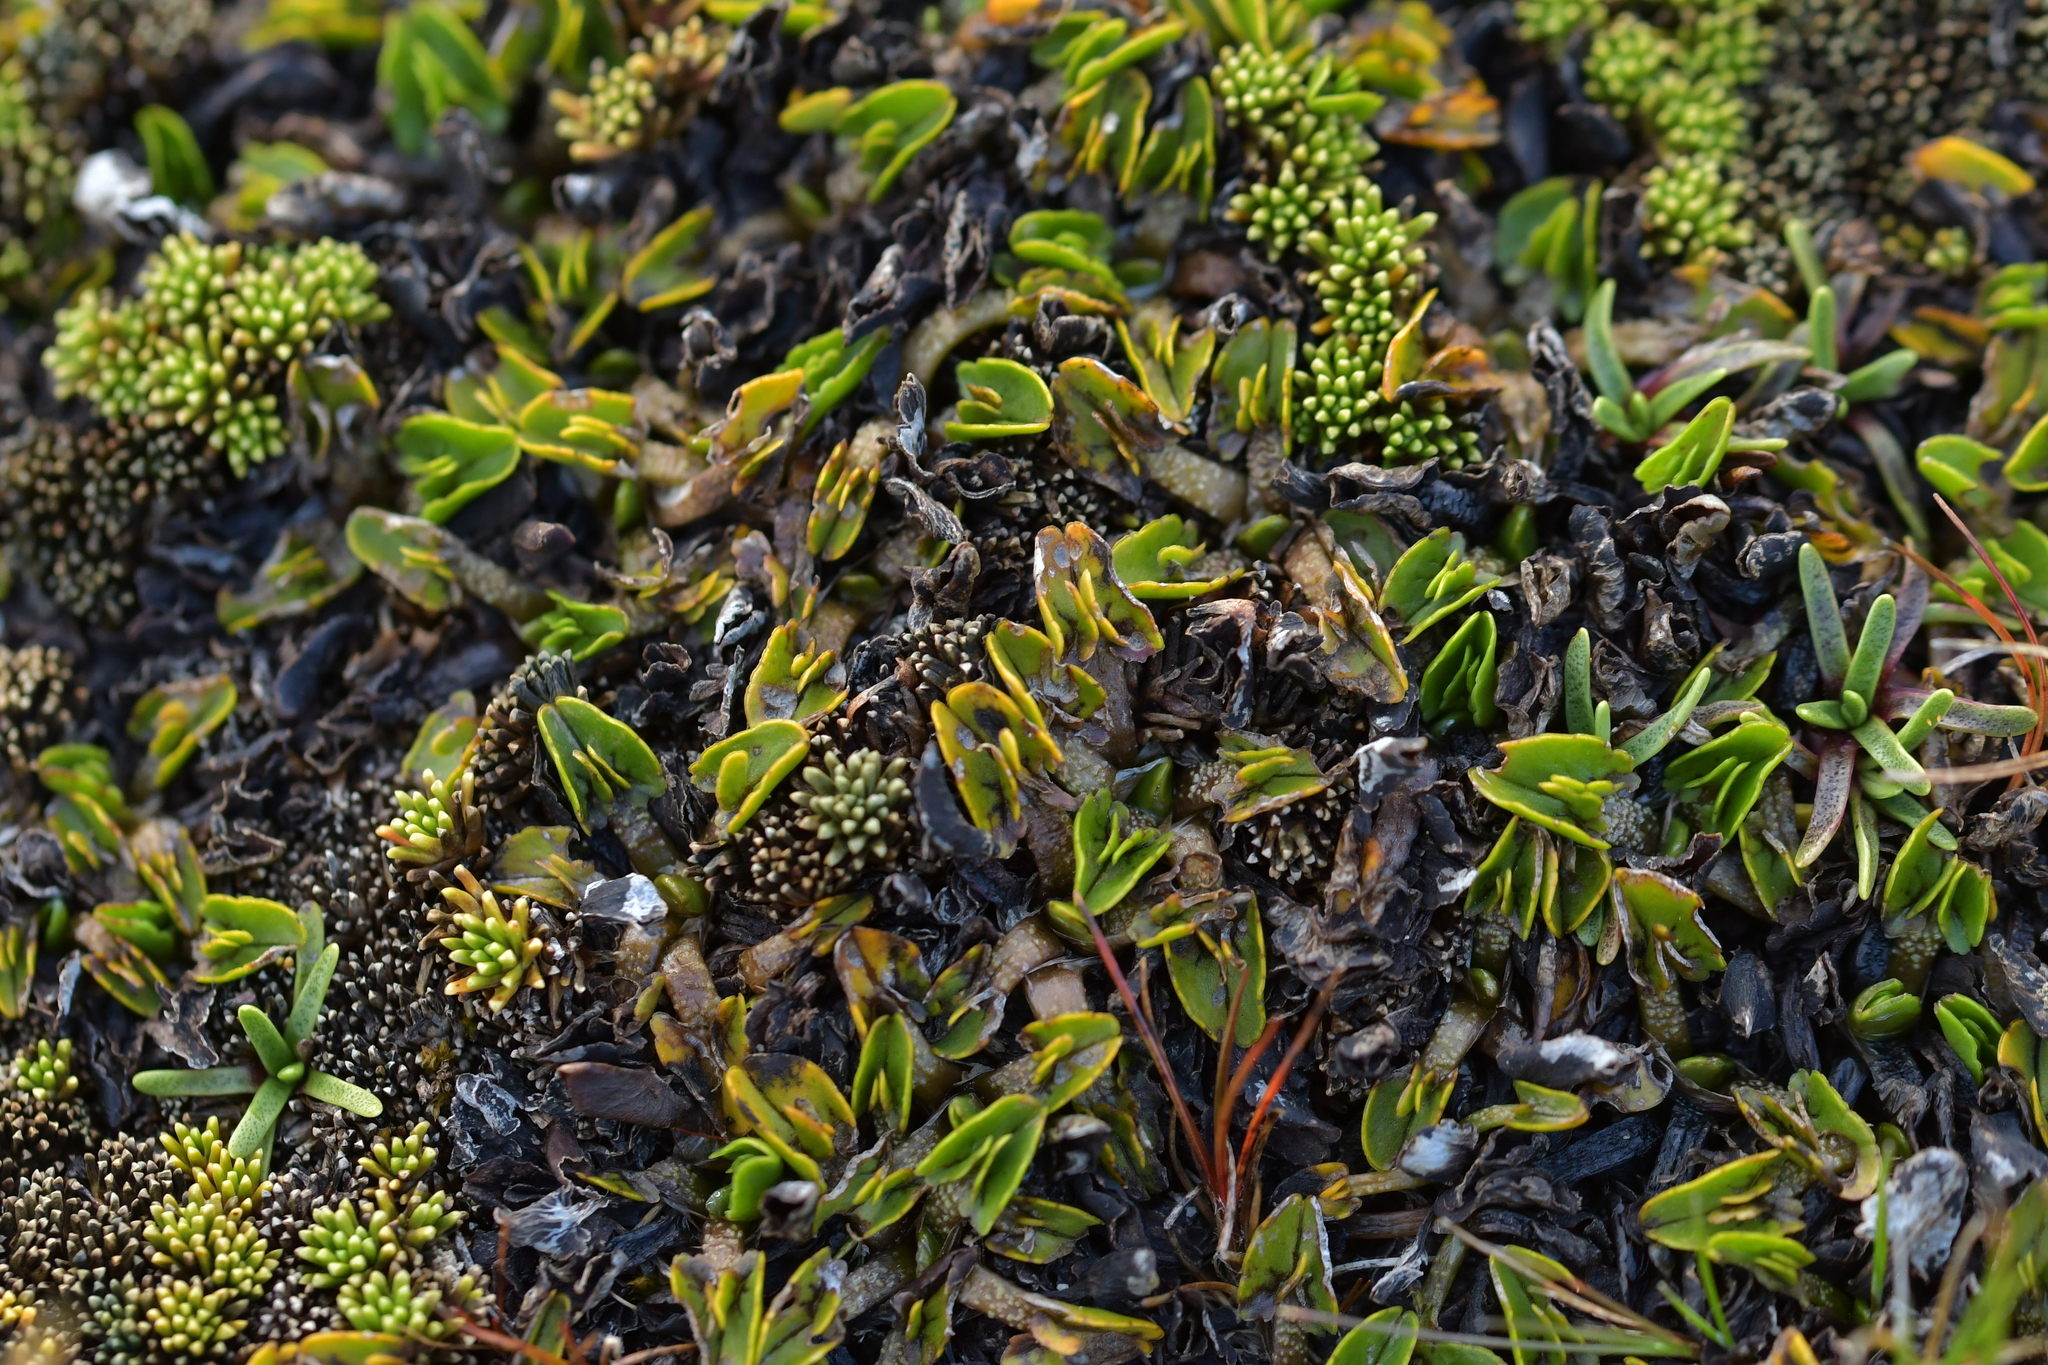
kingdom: Plantae
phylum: Tracheophyta
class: Magnoliopsida
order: Ranunculales
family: Ranunculaceae
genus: Caltha
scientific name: Caltha obtusa
